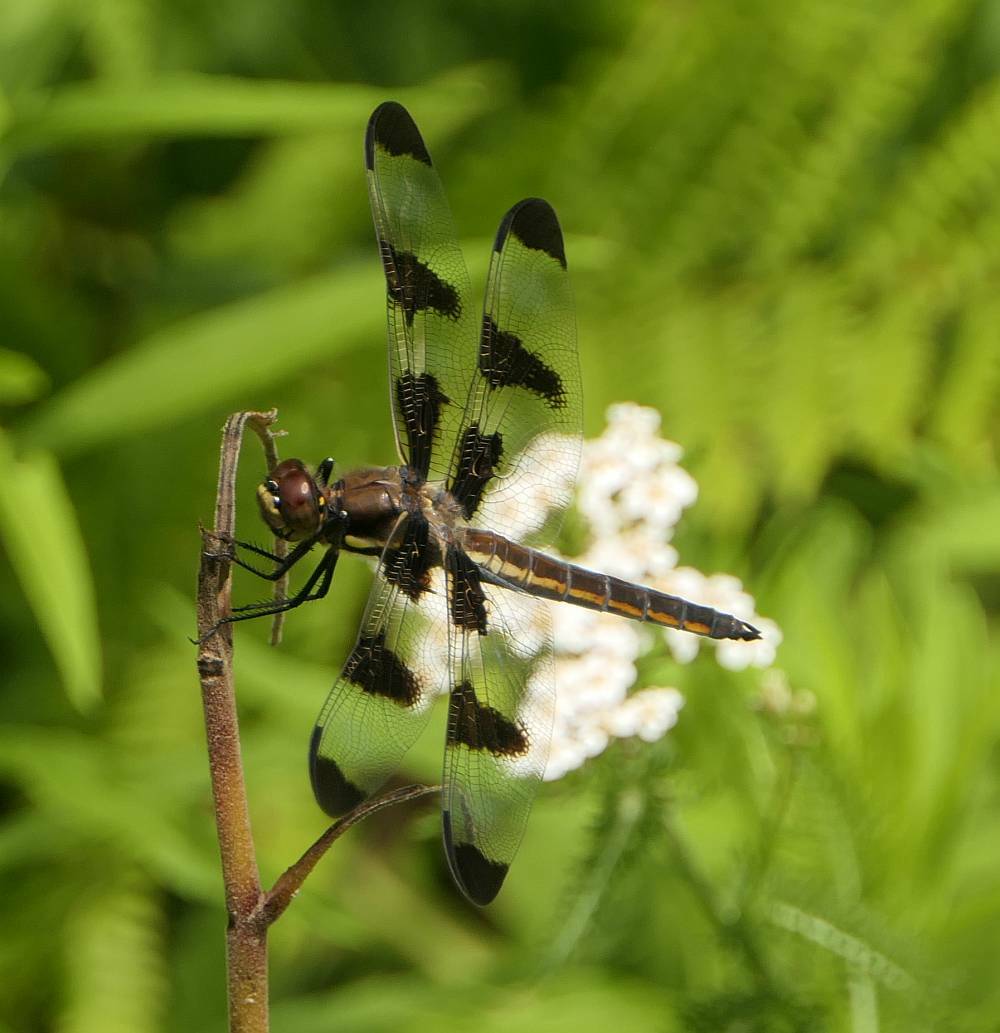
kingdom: Animalia
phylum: Arthropoda
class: Insecta
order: Odonata
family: Libellulidae
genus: Libellula
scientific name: Libellula pulchella
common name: Twelve-spotted skimmer
